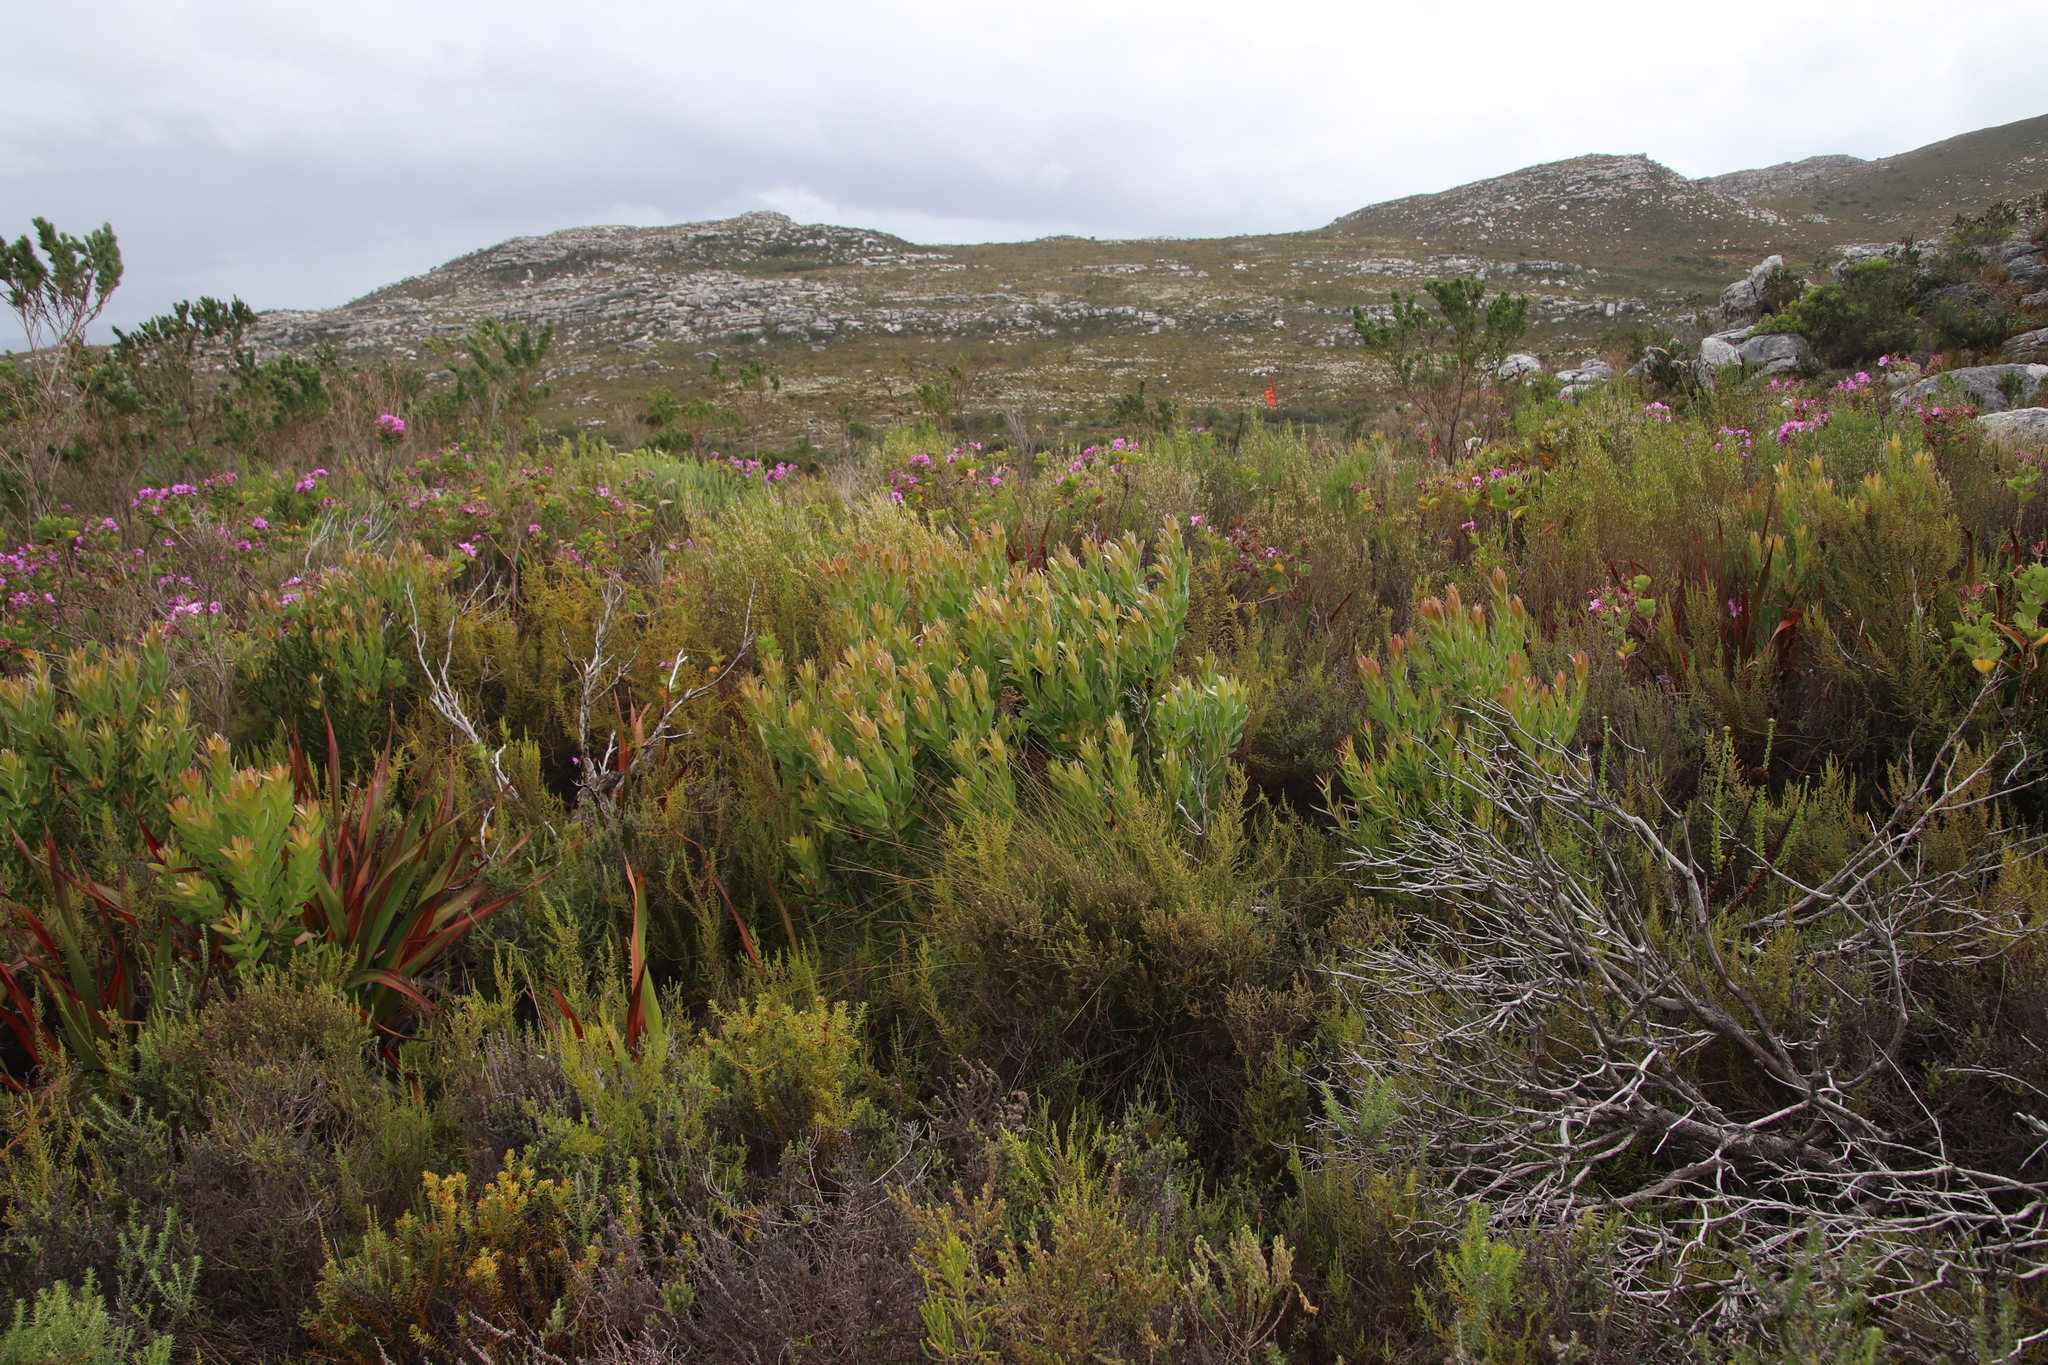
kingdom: Plantae
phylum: Tracheophyta
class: Magnoliopsida
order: Proteales
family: Proteaceae
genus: Leucadendron
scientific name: Leucadendron laureolum
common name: Golden sunshinebush
